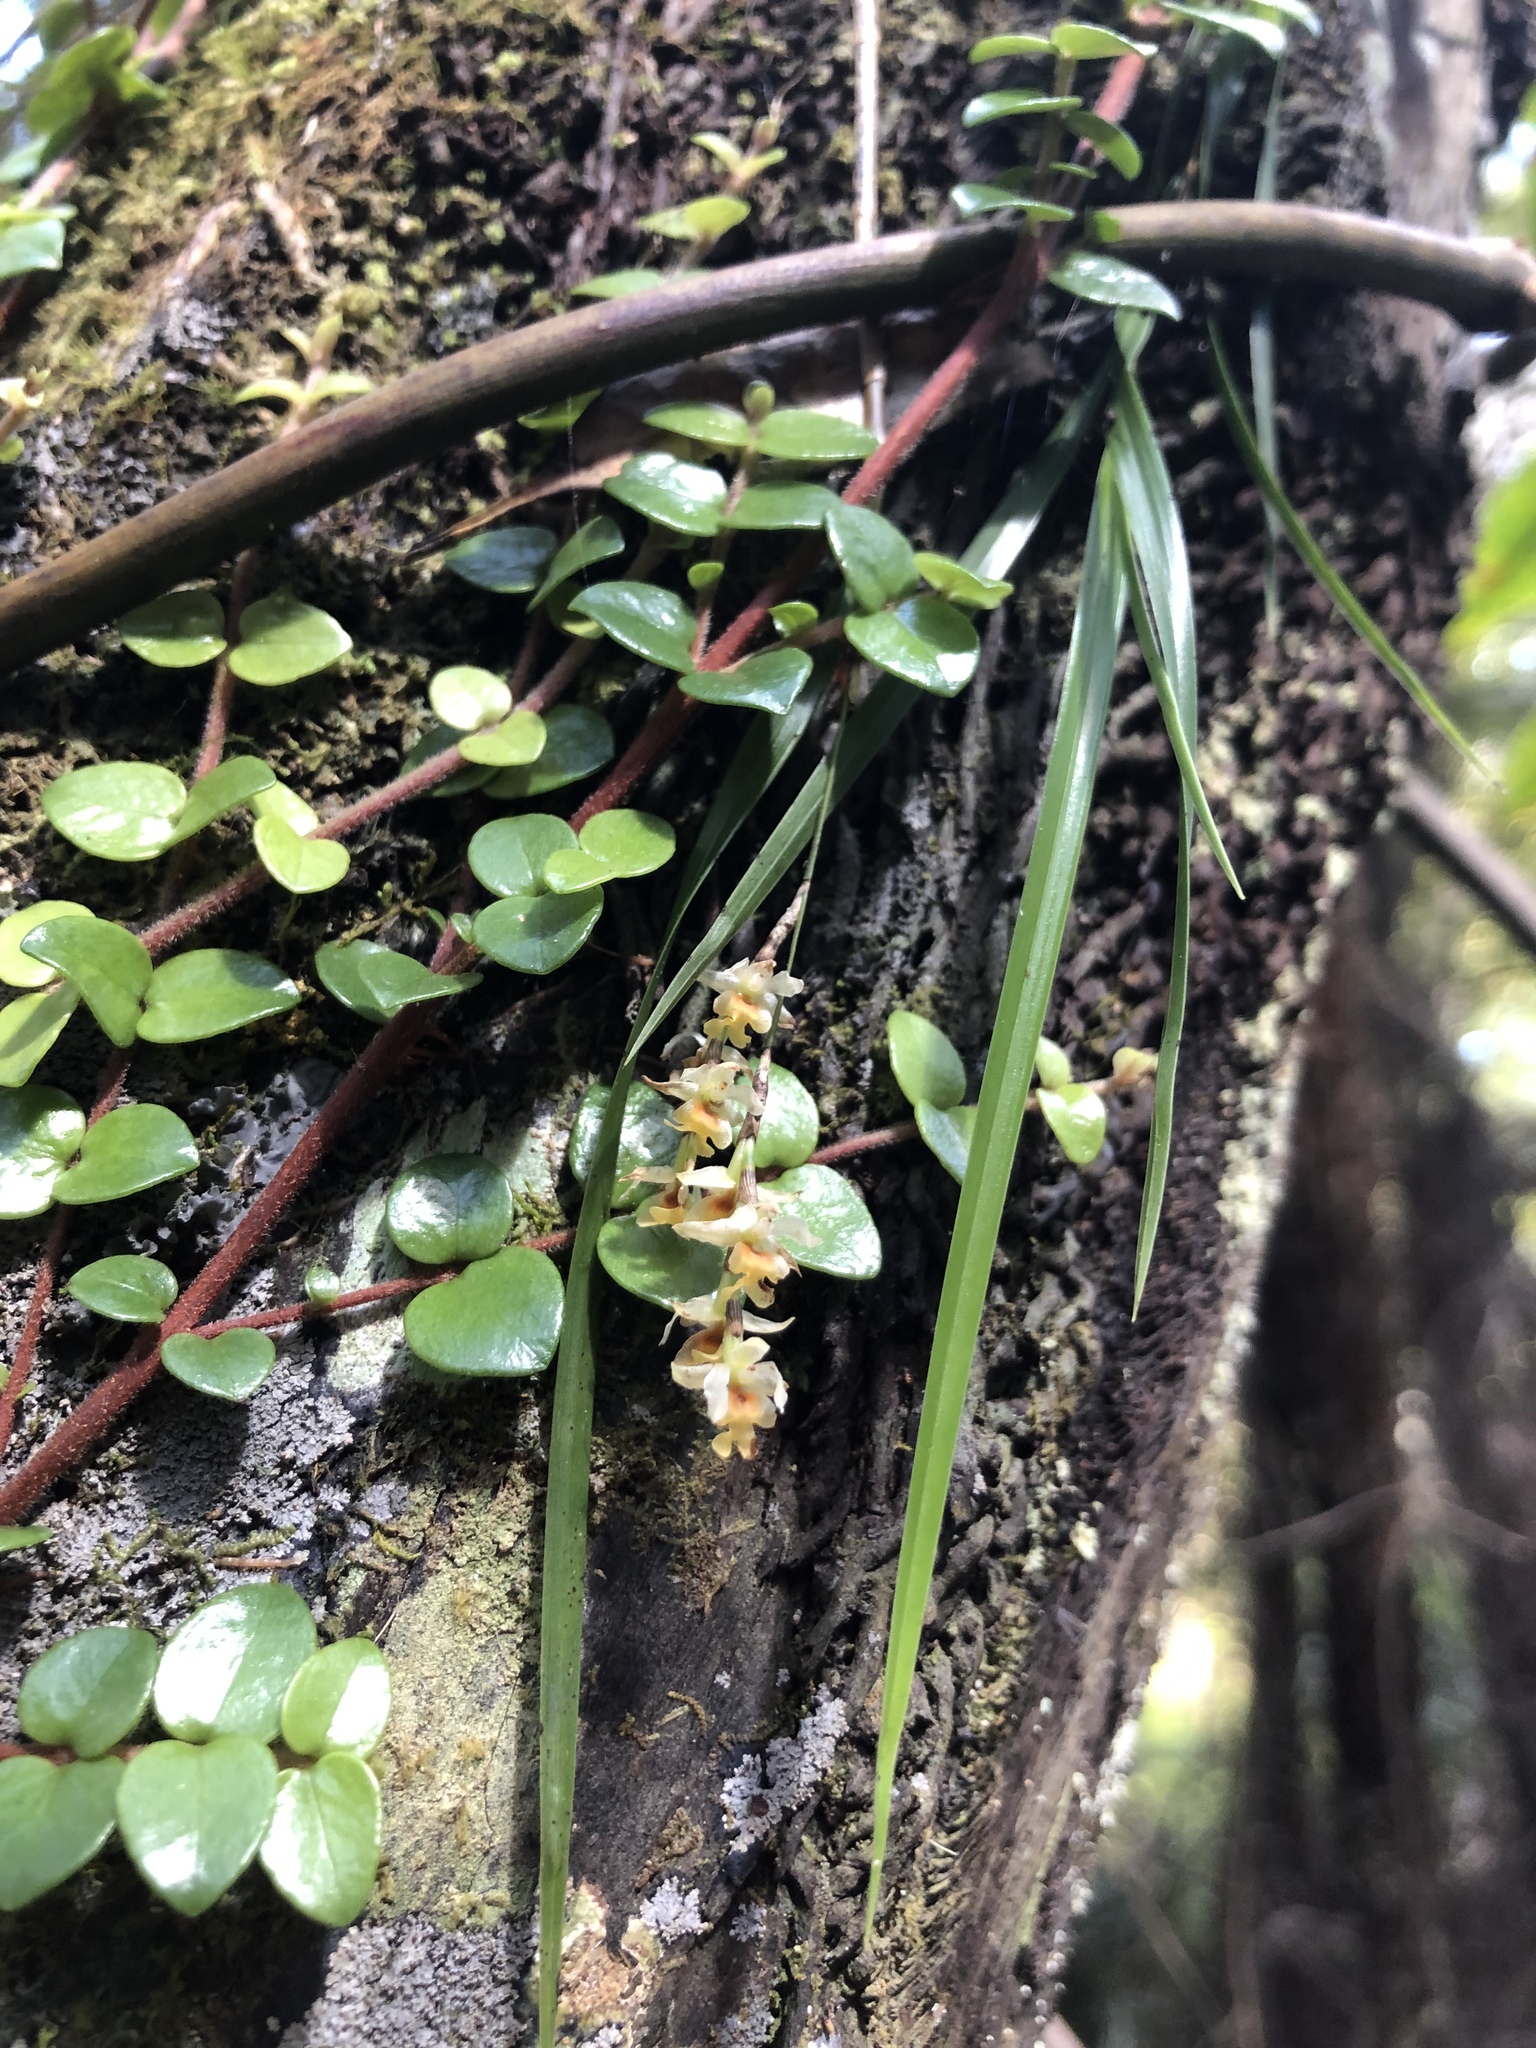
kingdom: Plantae
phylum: Tracheophyta
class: Liliopsida
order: Asparagales
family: Orchidaceae
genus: Earina
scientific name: Earina mucronata
